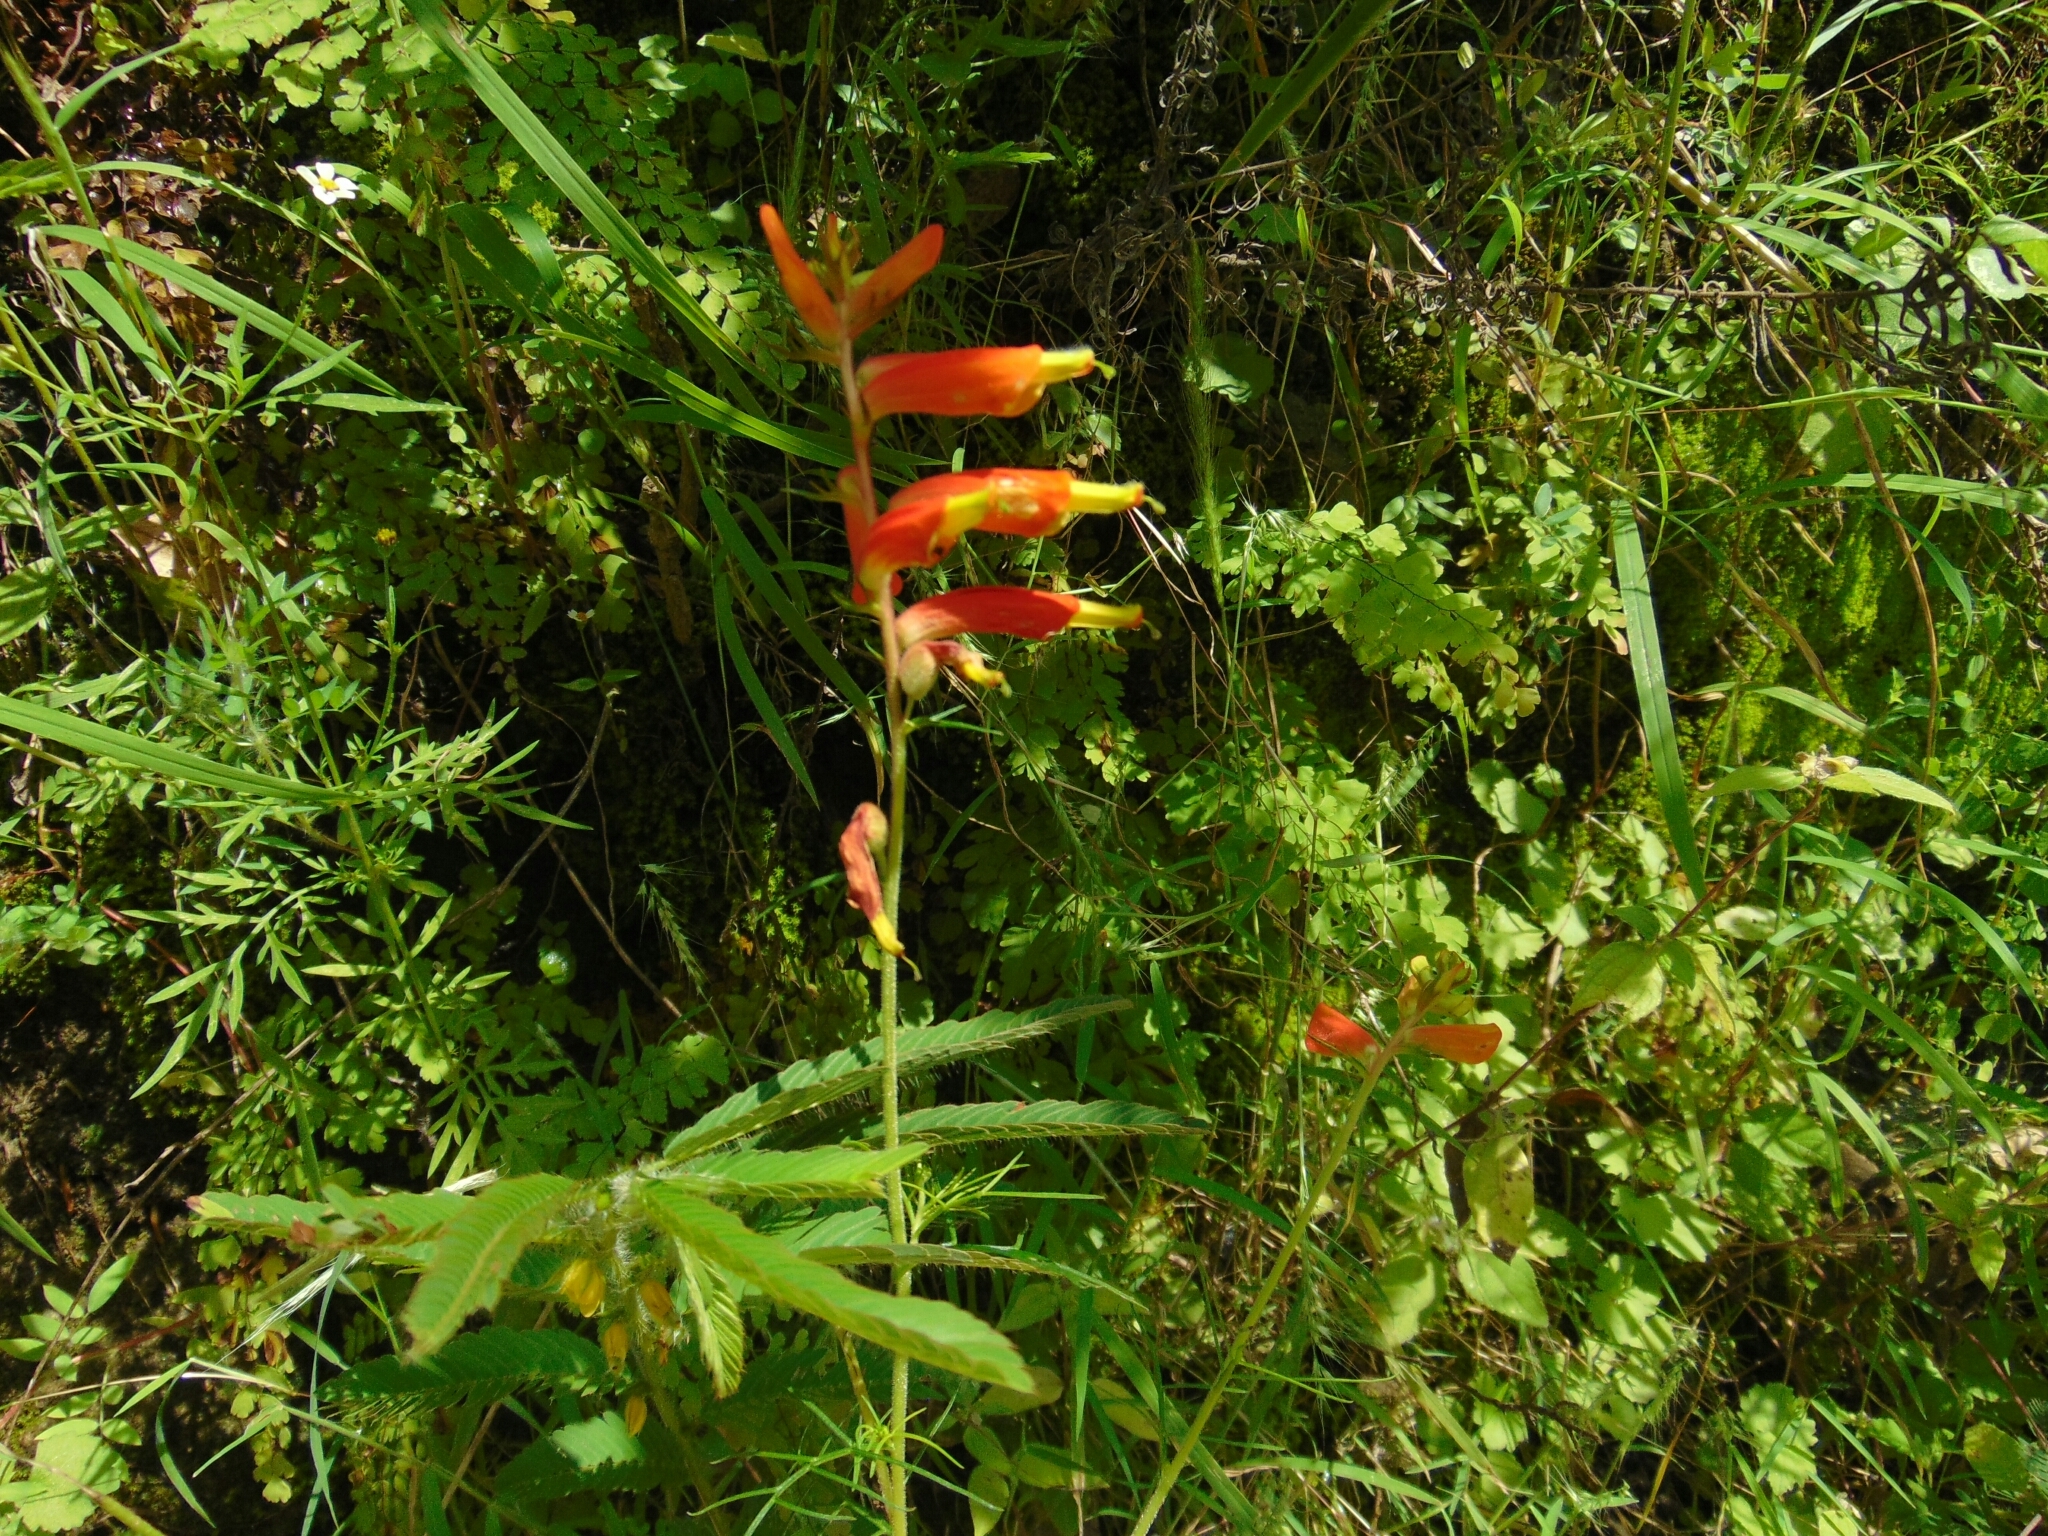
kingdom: Plantae
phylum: Tracheophyta
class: Magnoliopsida
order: Lamiales
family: Orobanchaceae
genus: Castilleja
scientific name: Castilleja tenuifolia
